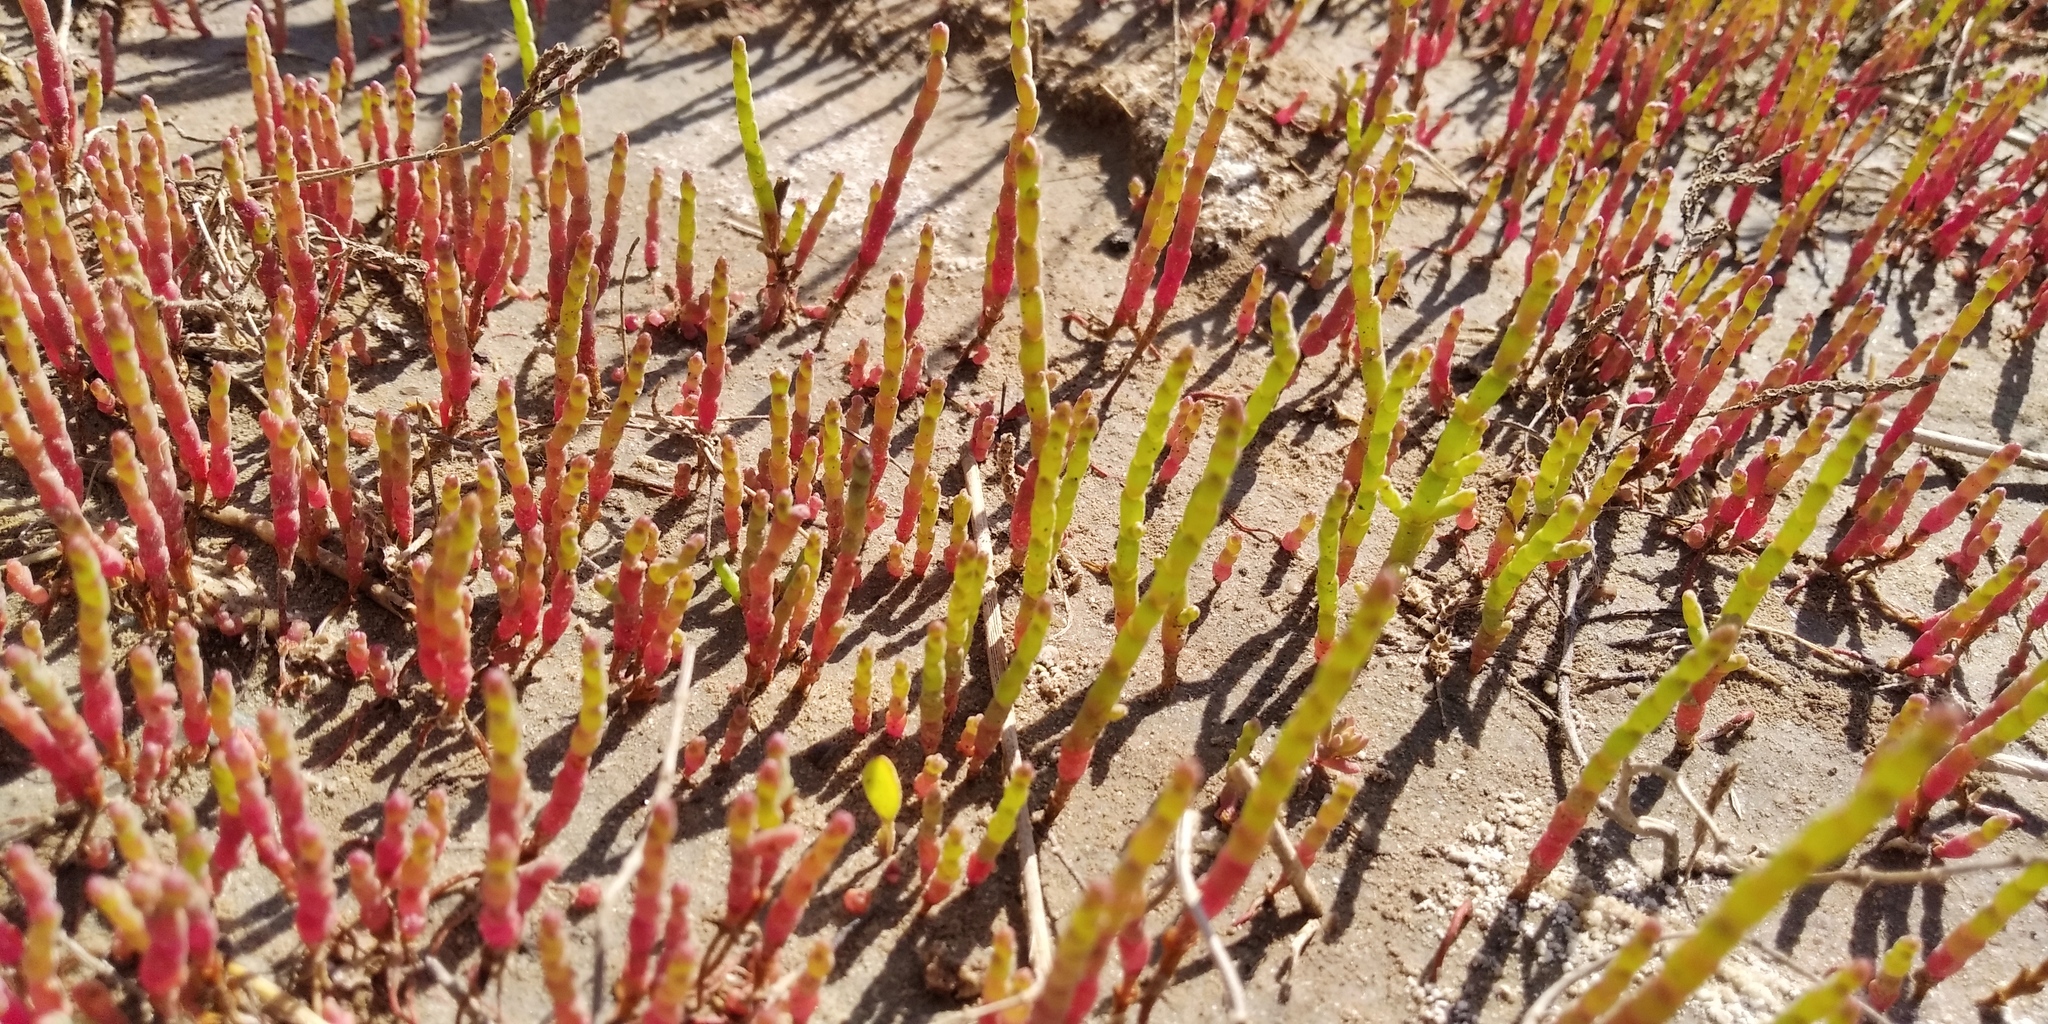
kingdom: Plantae
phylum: Tracheophyta
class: Magnoliopsida
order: Caryophyllales
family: Amaranthaceae
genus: Salicornia
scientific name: Salicornia perennans
